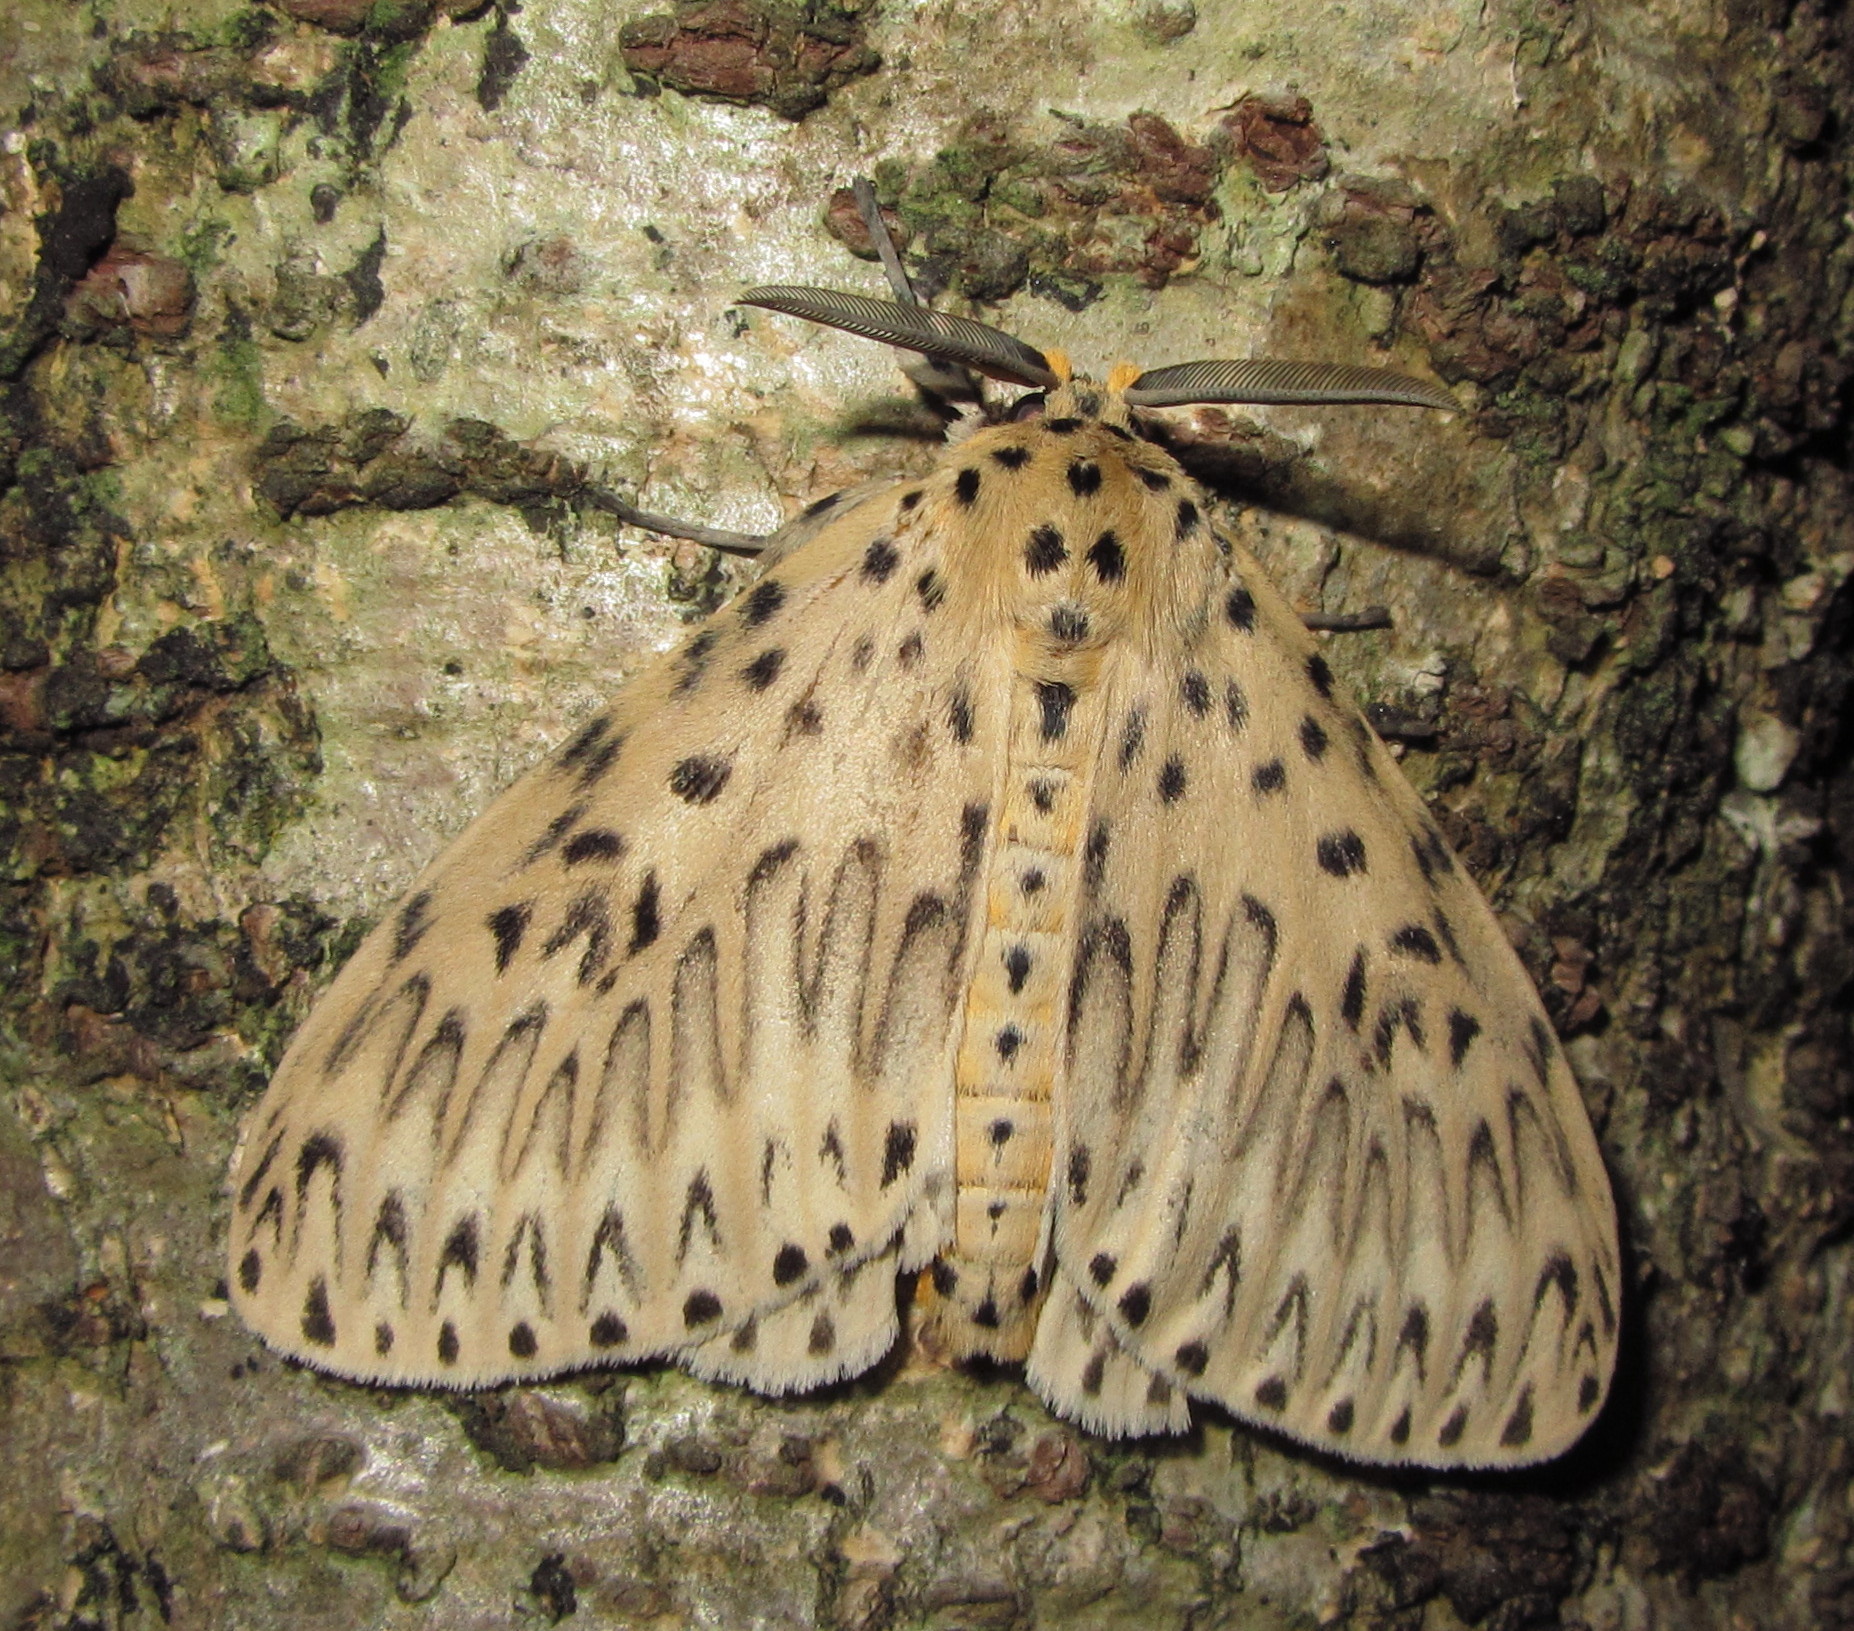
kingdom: Animalia
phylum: Arthropoda
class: Insecta
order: Lepidoptera
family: Erebidae
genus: Imaus
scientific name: Imaus munda
